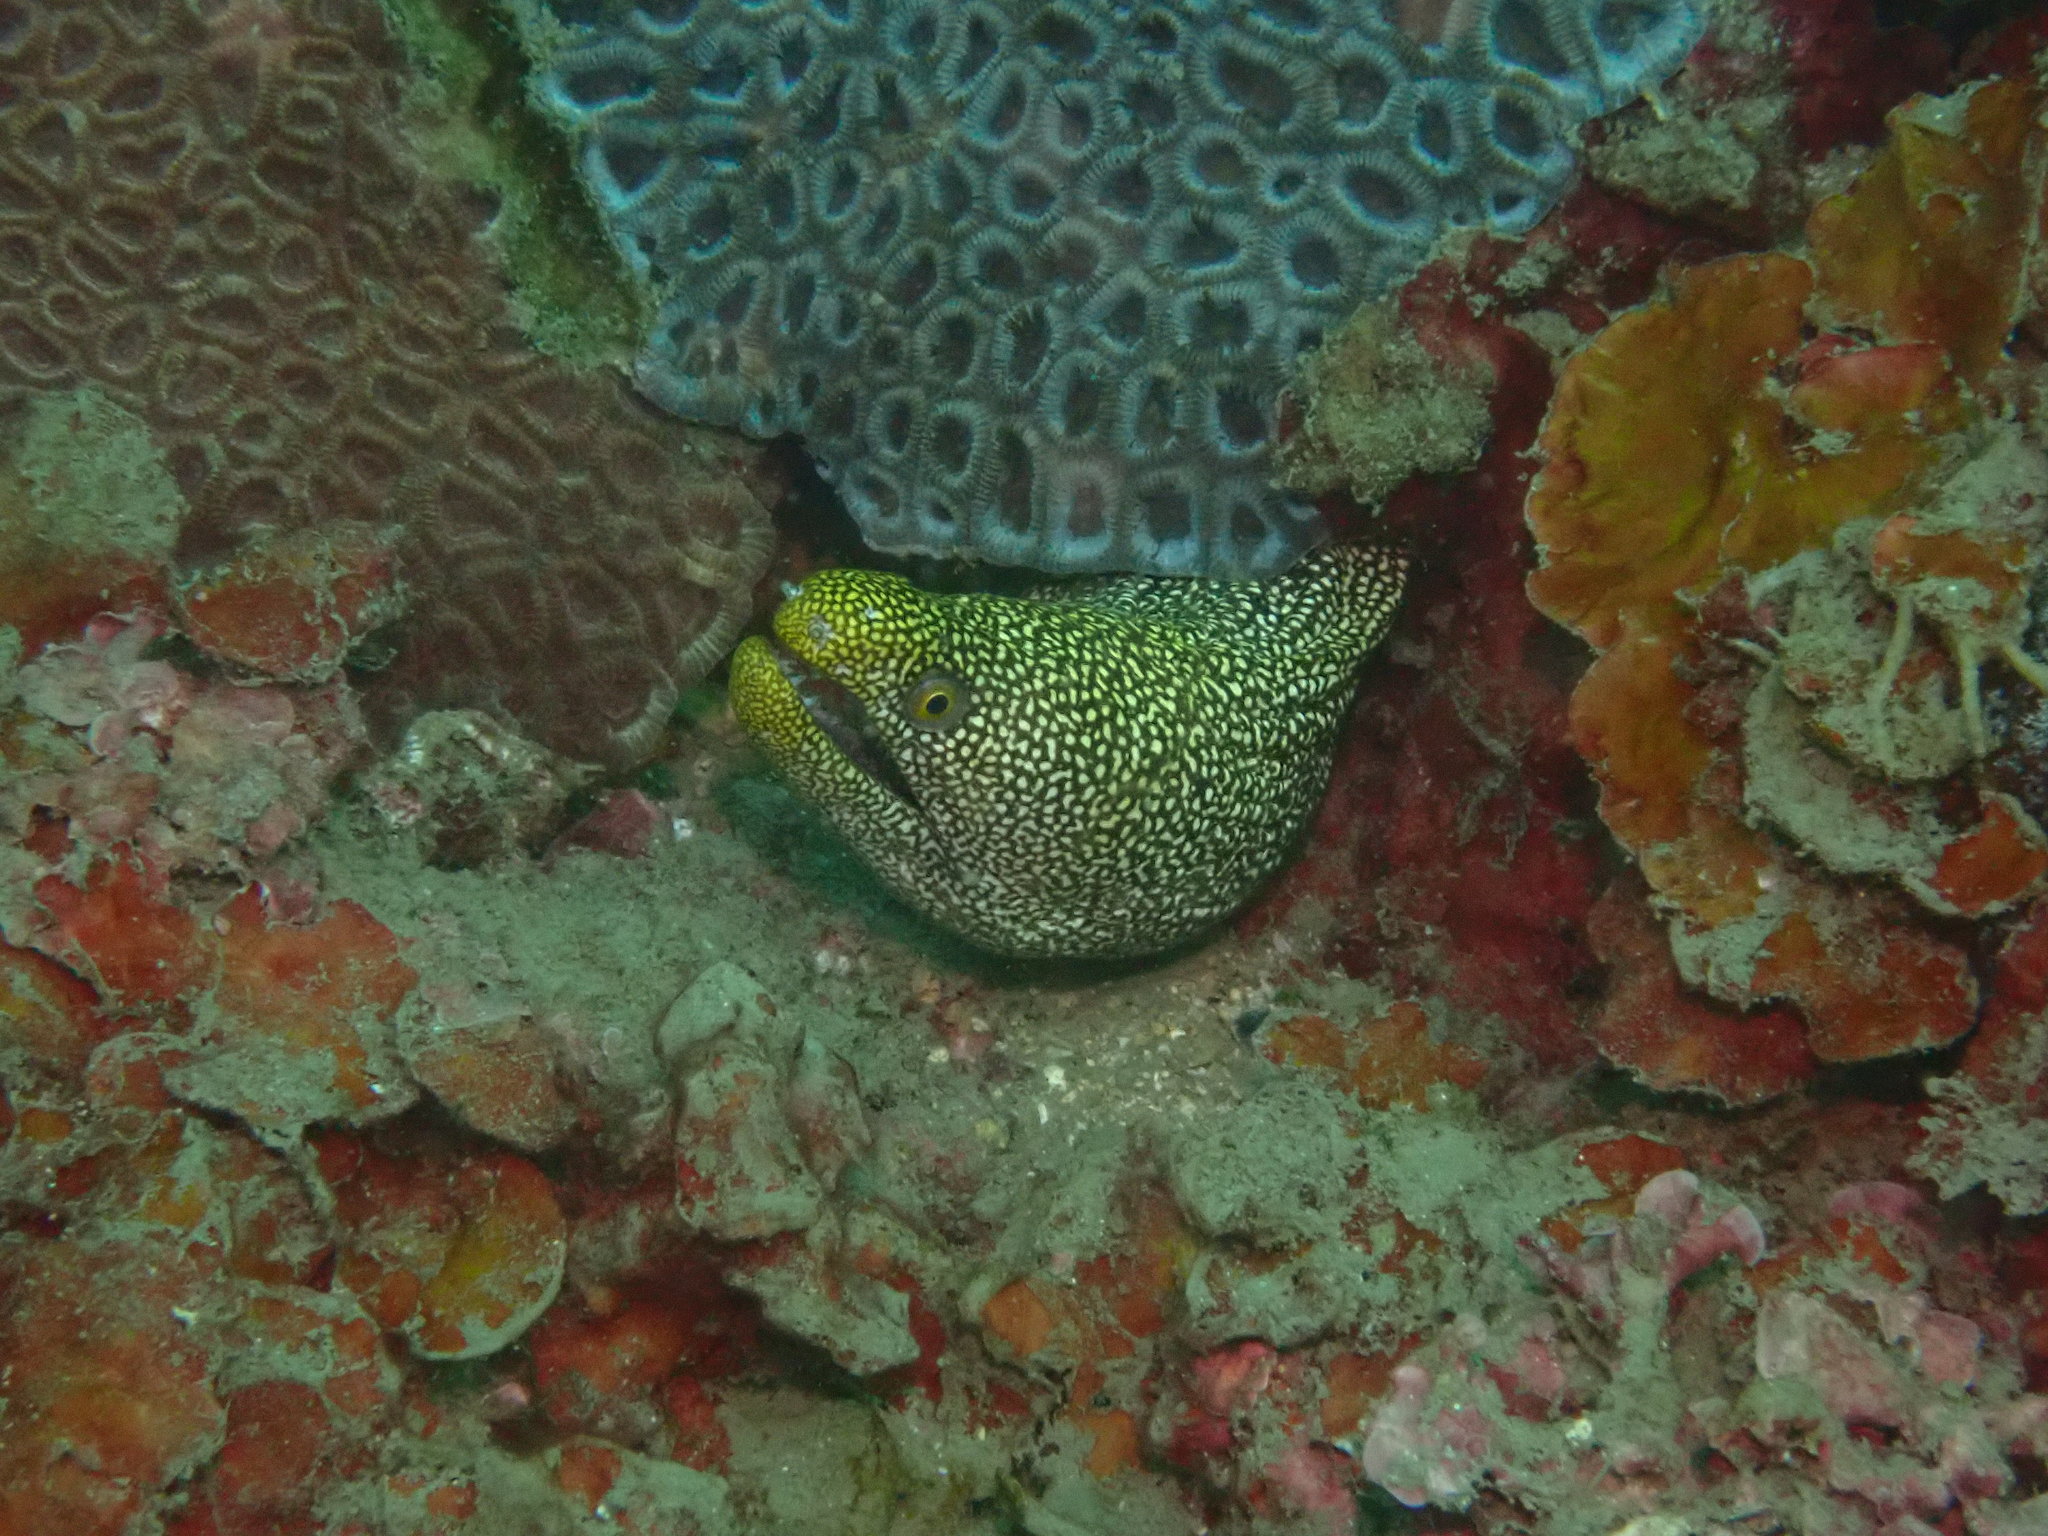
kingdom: Animalia
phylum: Chordata
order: Anguilliformes
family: Muraenidae
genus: Gymnothorax
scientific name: Gymnothorax eurostus
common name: Stout moray
